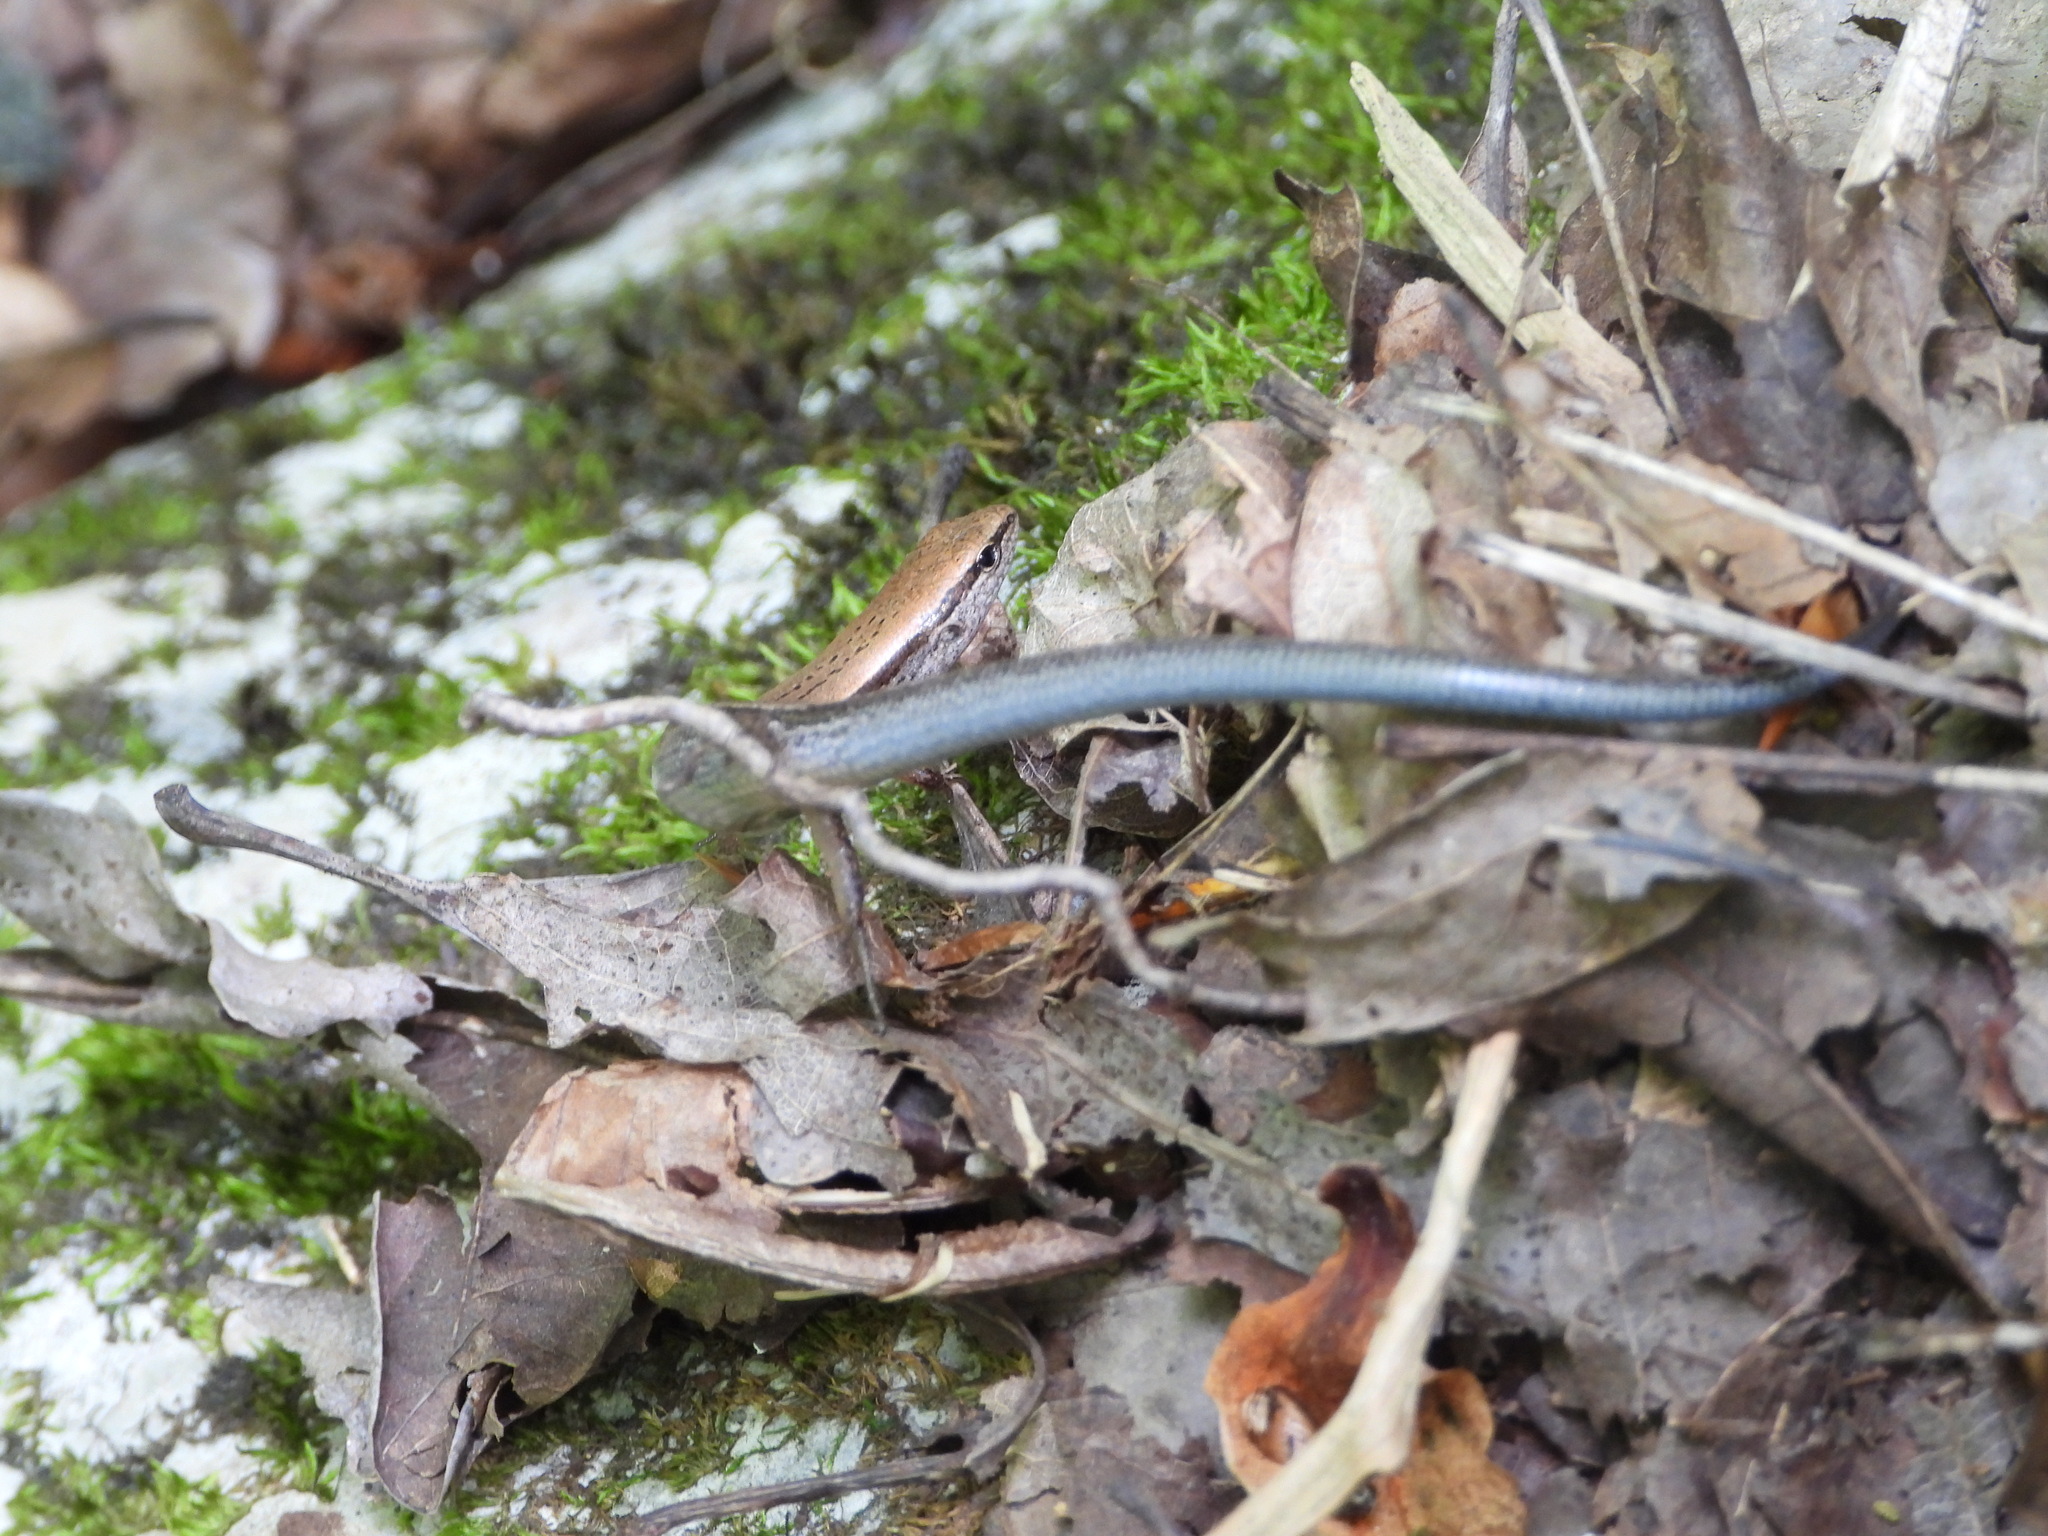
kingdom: Animalia
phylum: Chordata
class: Squamata
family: Scincidae
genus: Scincella
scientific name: Scincella lateralis
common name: Ground skink
